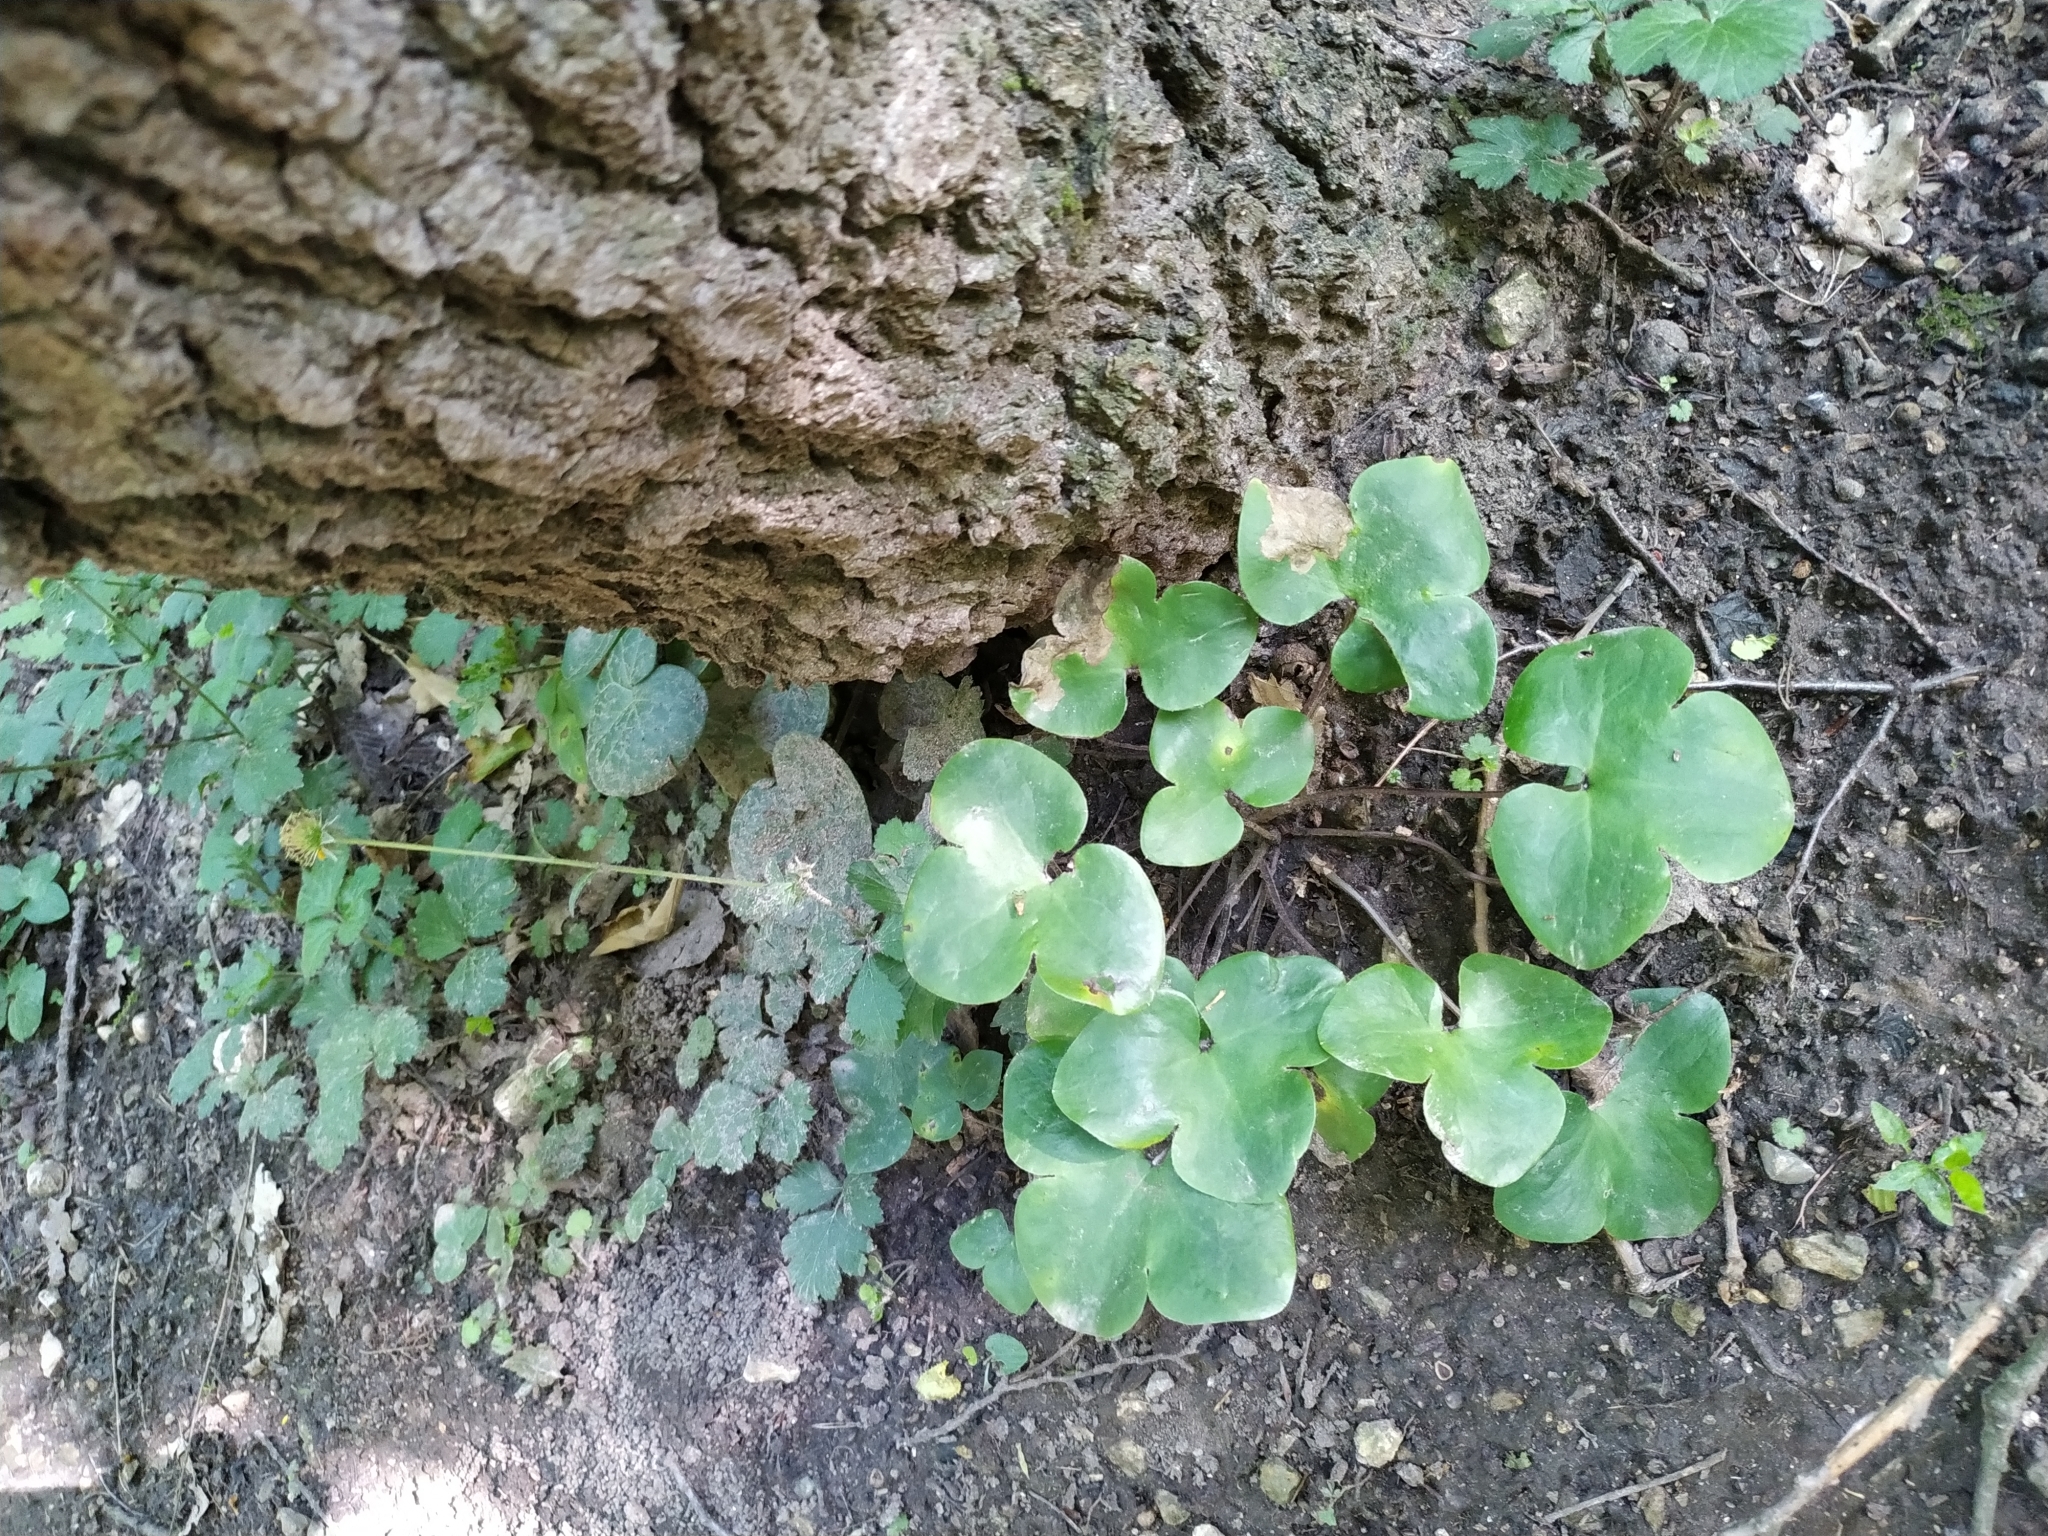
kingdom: Plantae
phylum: Tracheophyta
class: Magnoliopsida
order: Ranunculales
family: Ranunculaceae
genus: Hepatica
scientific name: Hepatica nobilis
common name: Liverleaf
